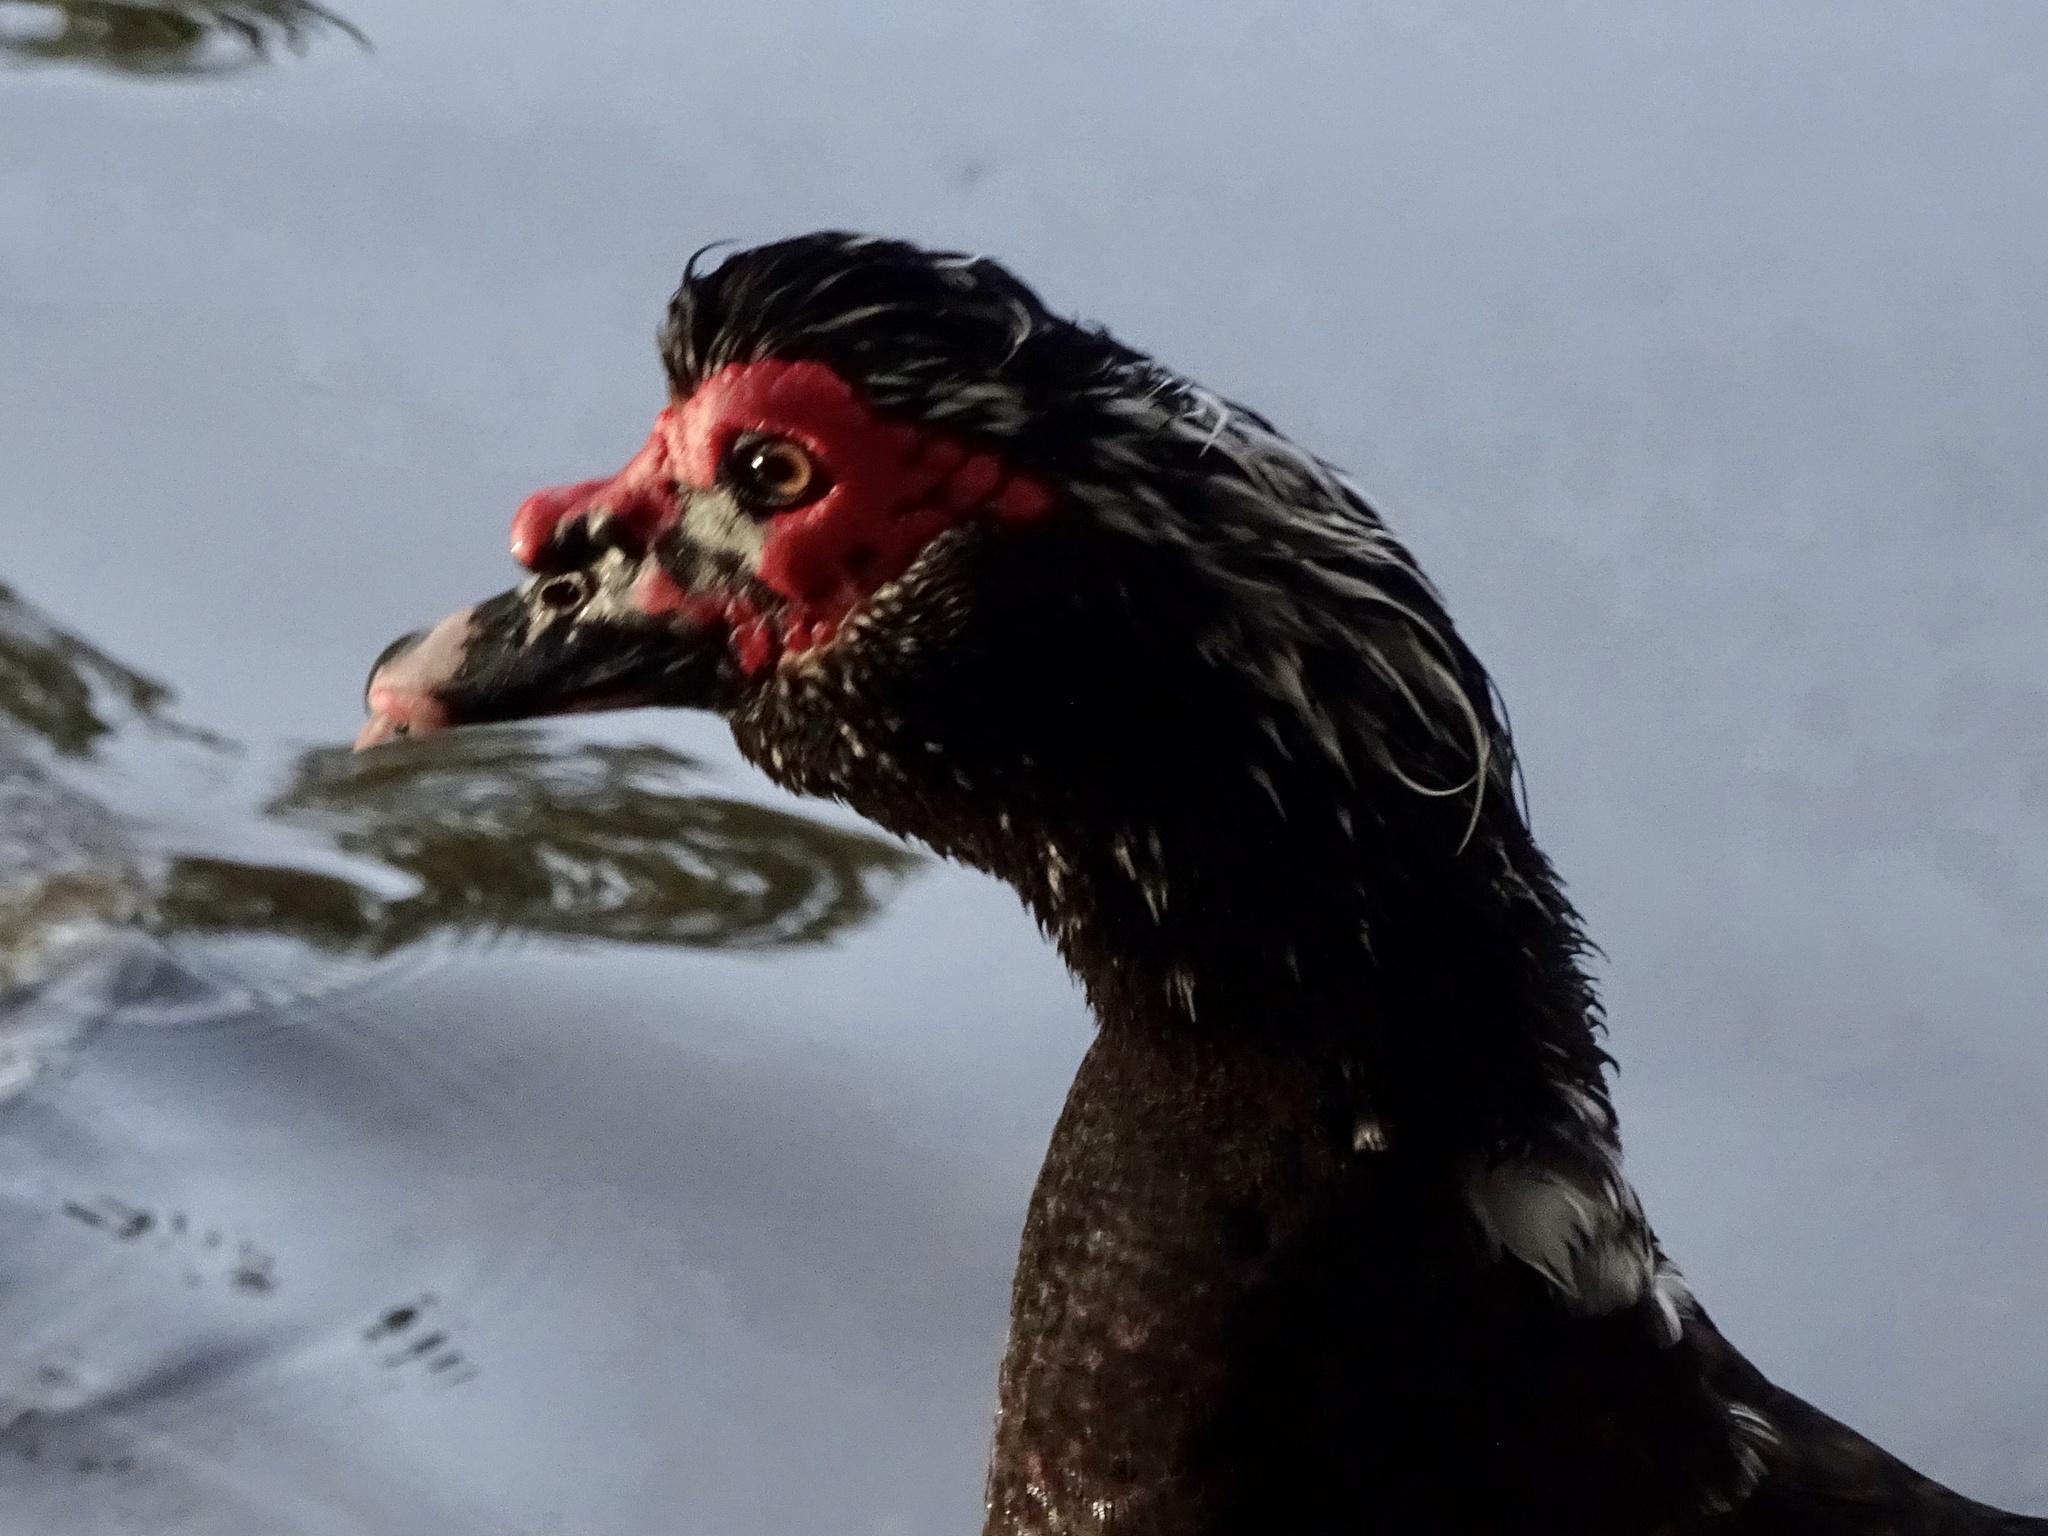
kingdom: Animalia
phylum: Chordata
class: Aves
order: Anseriformes
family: Anatidae
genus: Cairina
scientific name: Cairina moschata
